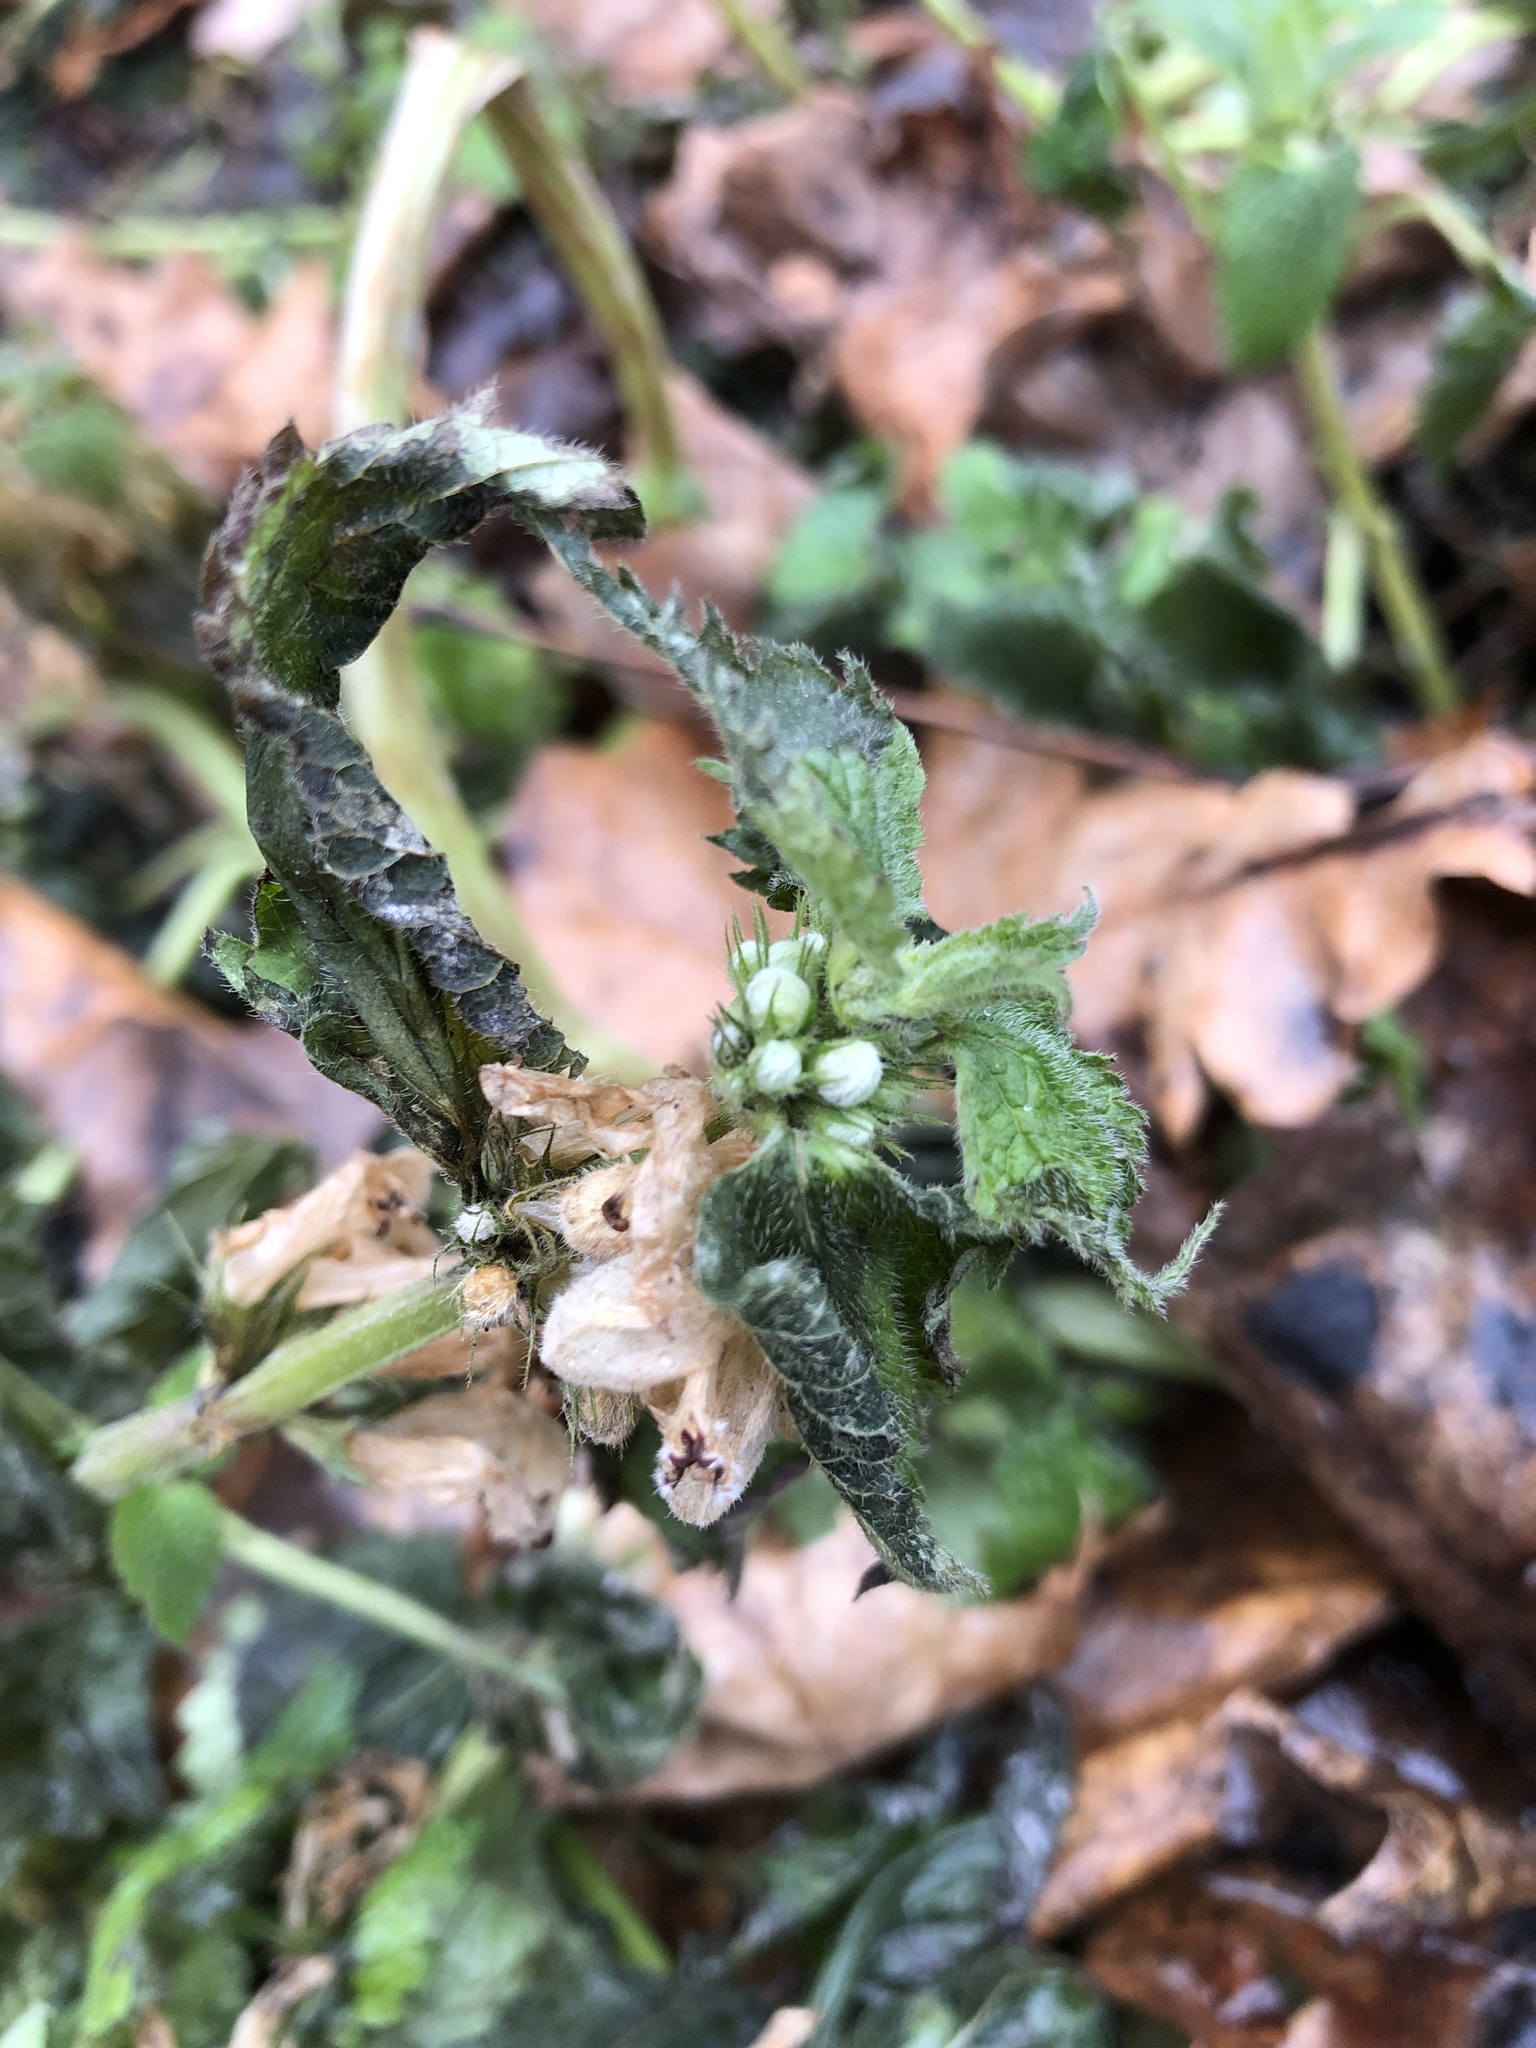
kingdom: Plantae
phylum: Tracheophyta
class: Magnoliopsida
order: Lamiales
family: Lamiaceae
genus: Lamium
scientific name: Lamium album
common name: White dead-nettle
